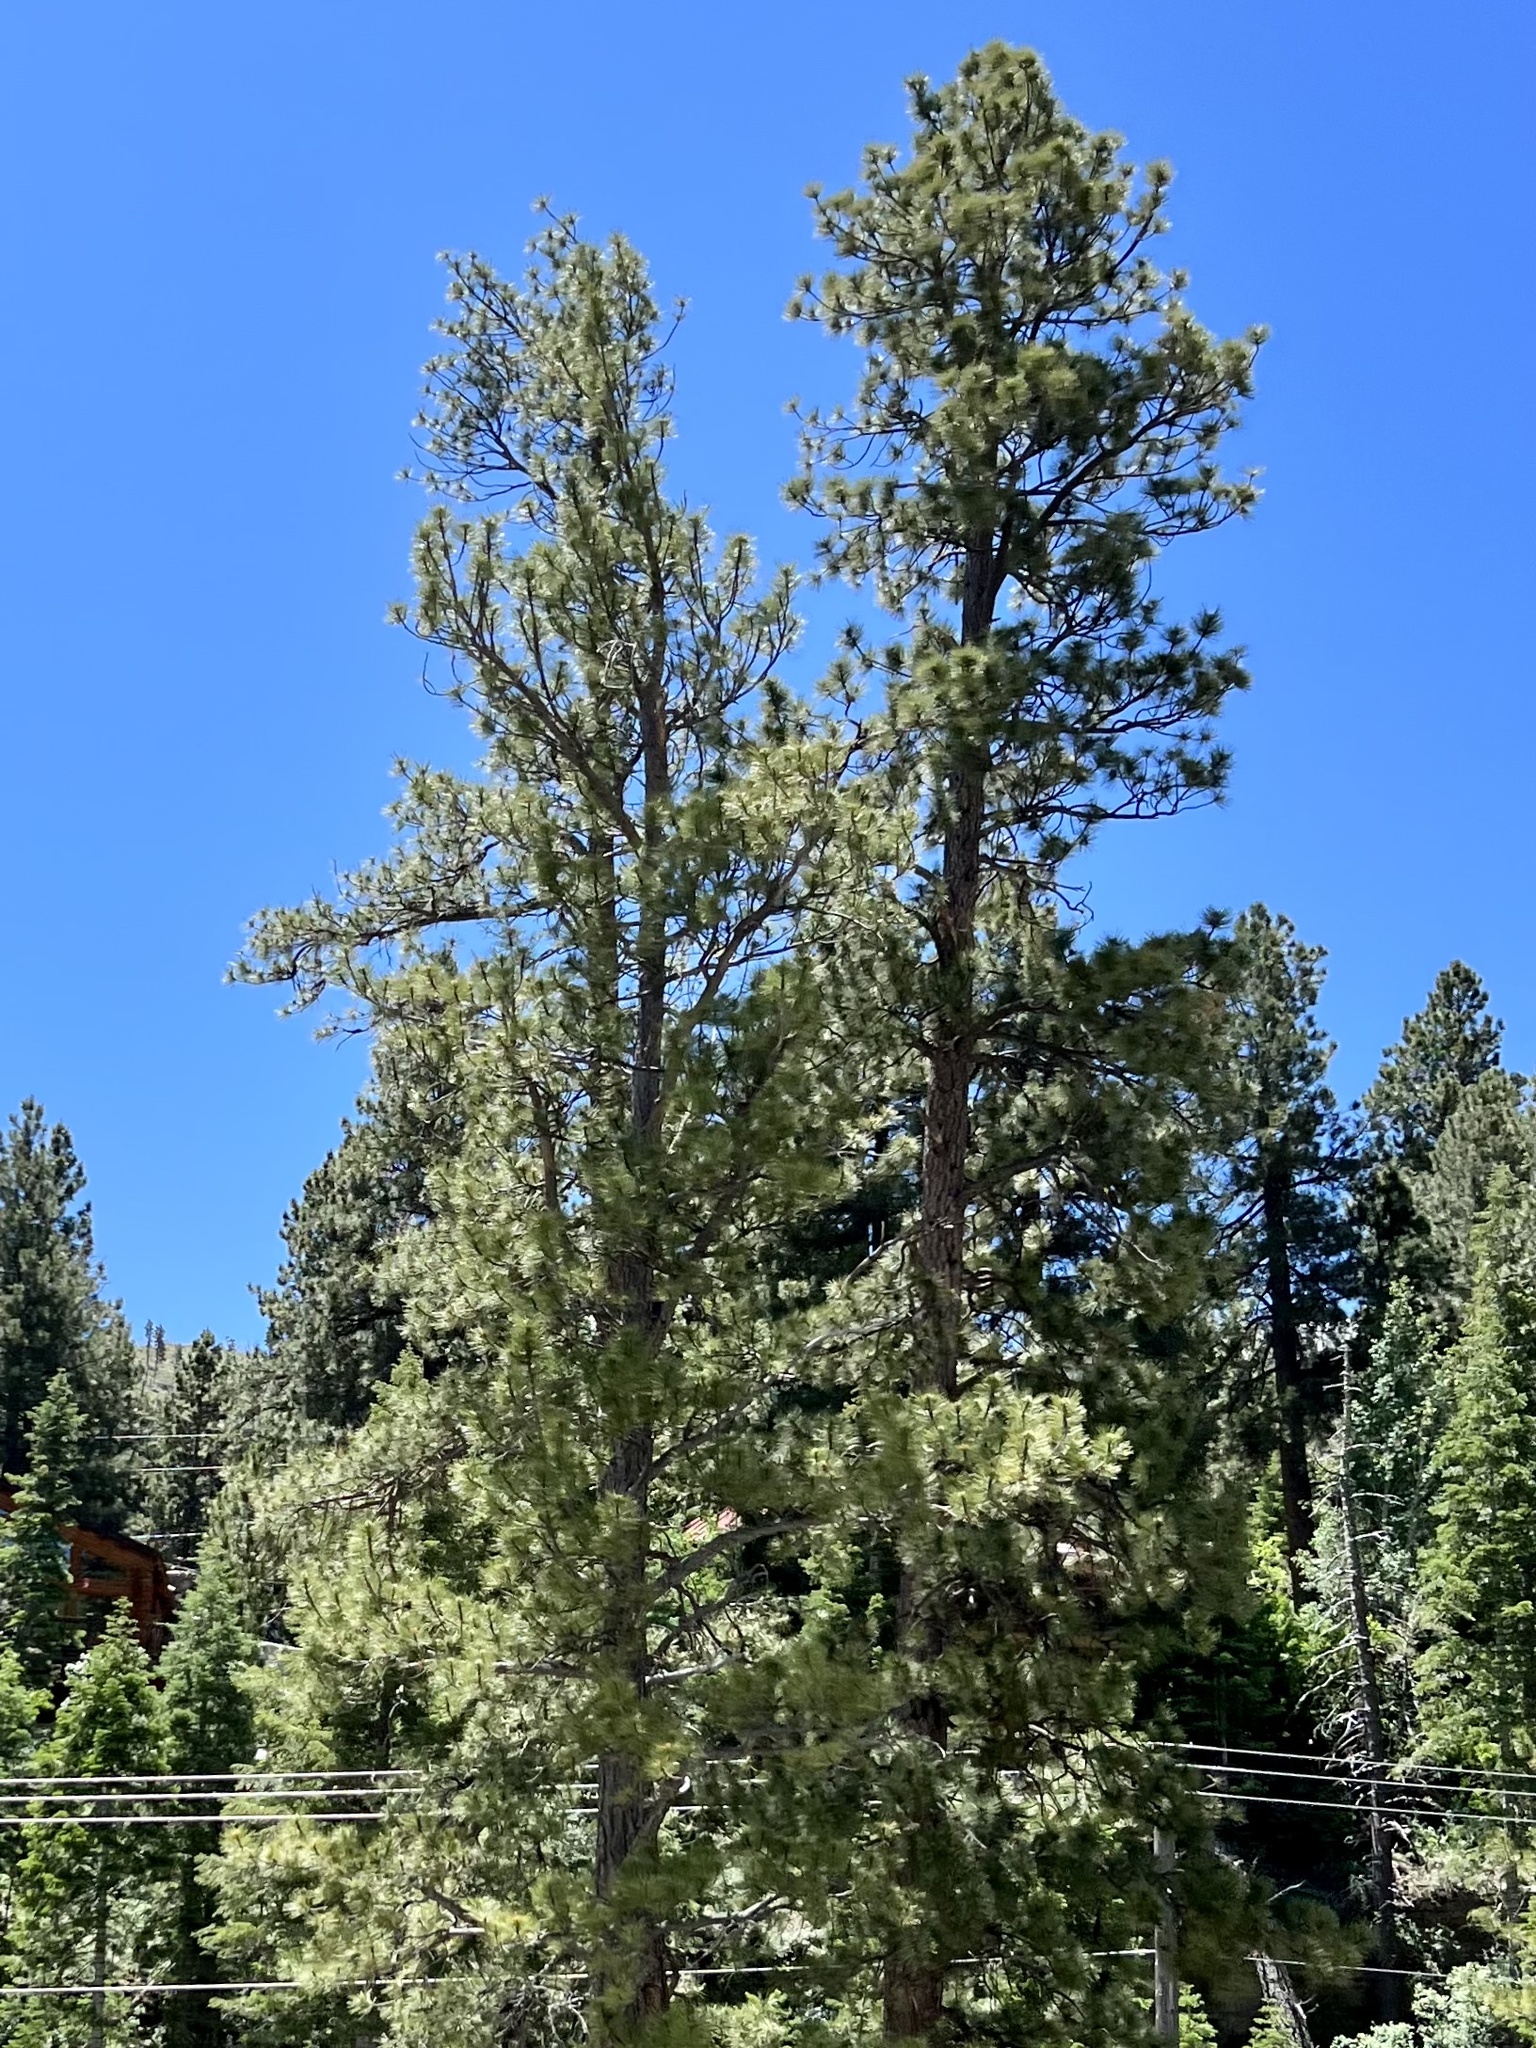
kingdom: Plantae
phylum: Tracheophyta
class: Pinopsida
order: Pinales
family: Pinaceae
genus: Pinus
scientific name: Pinus ponderosa
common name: Western yellow-pine
